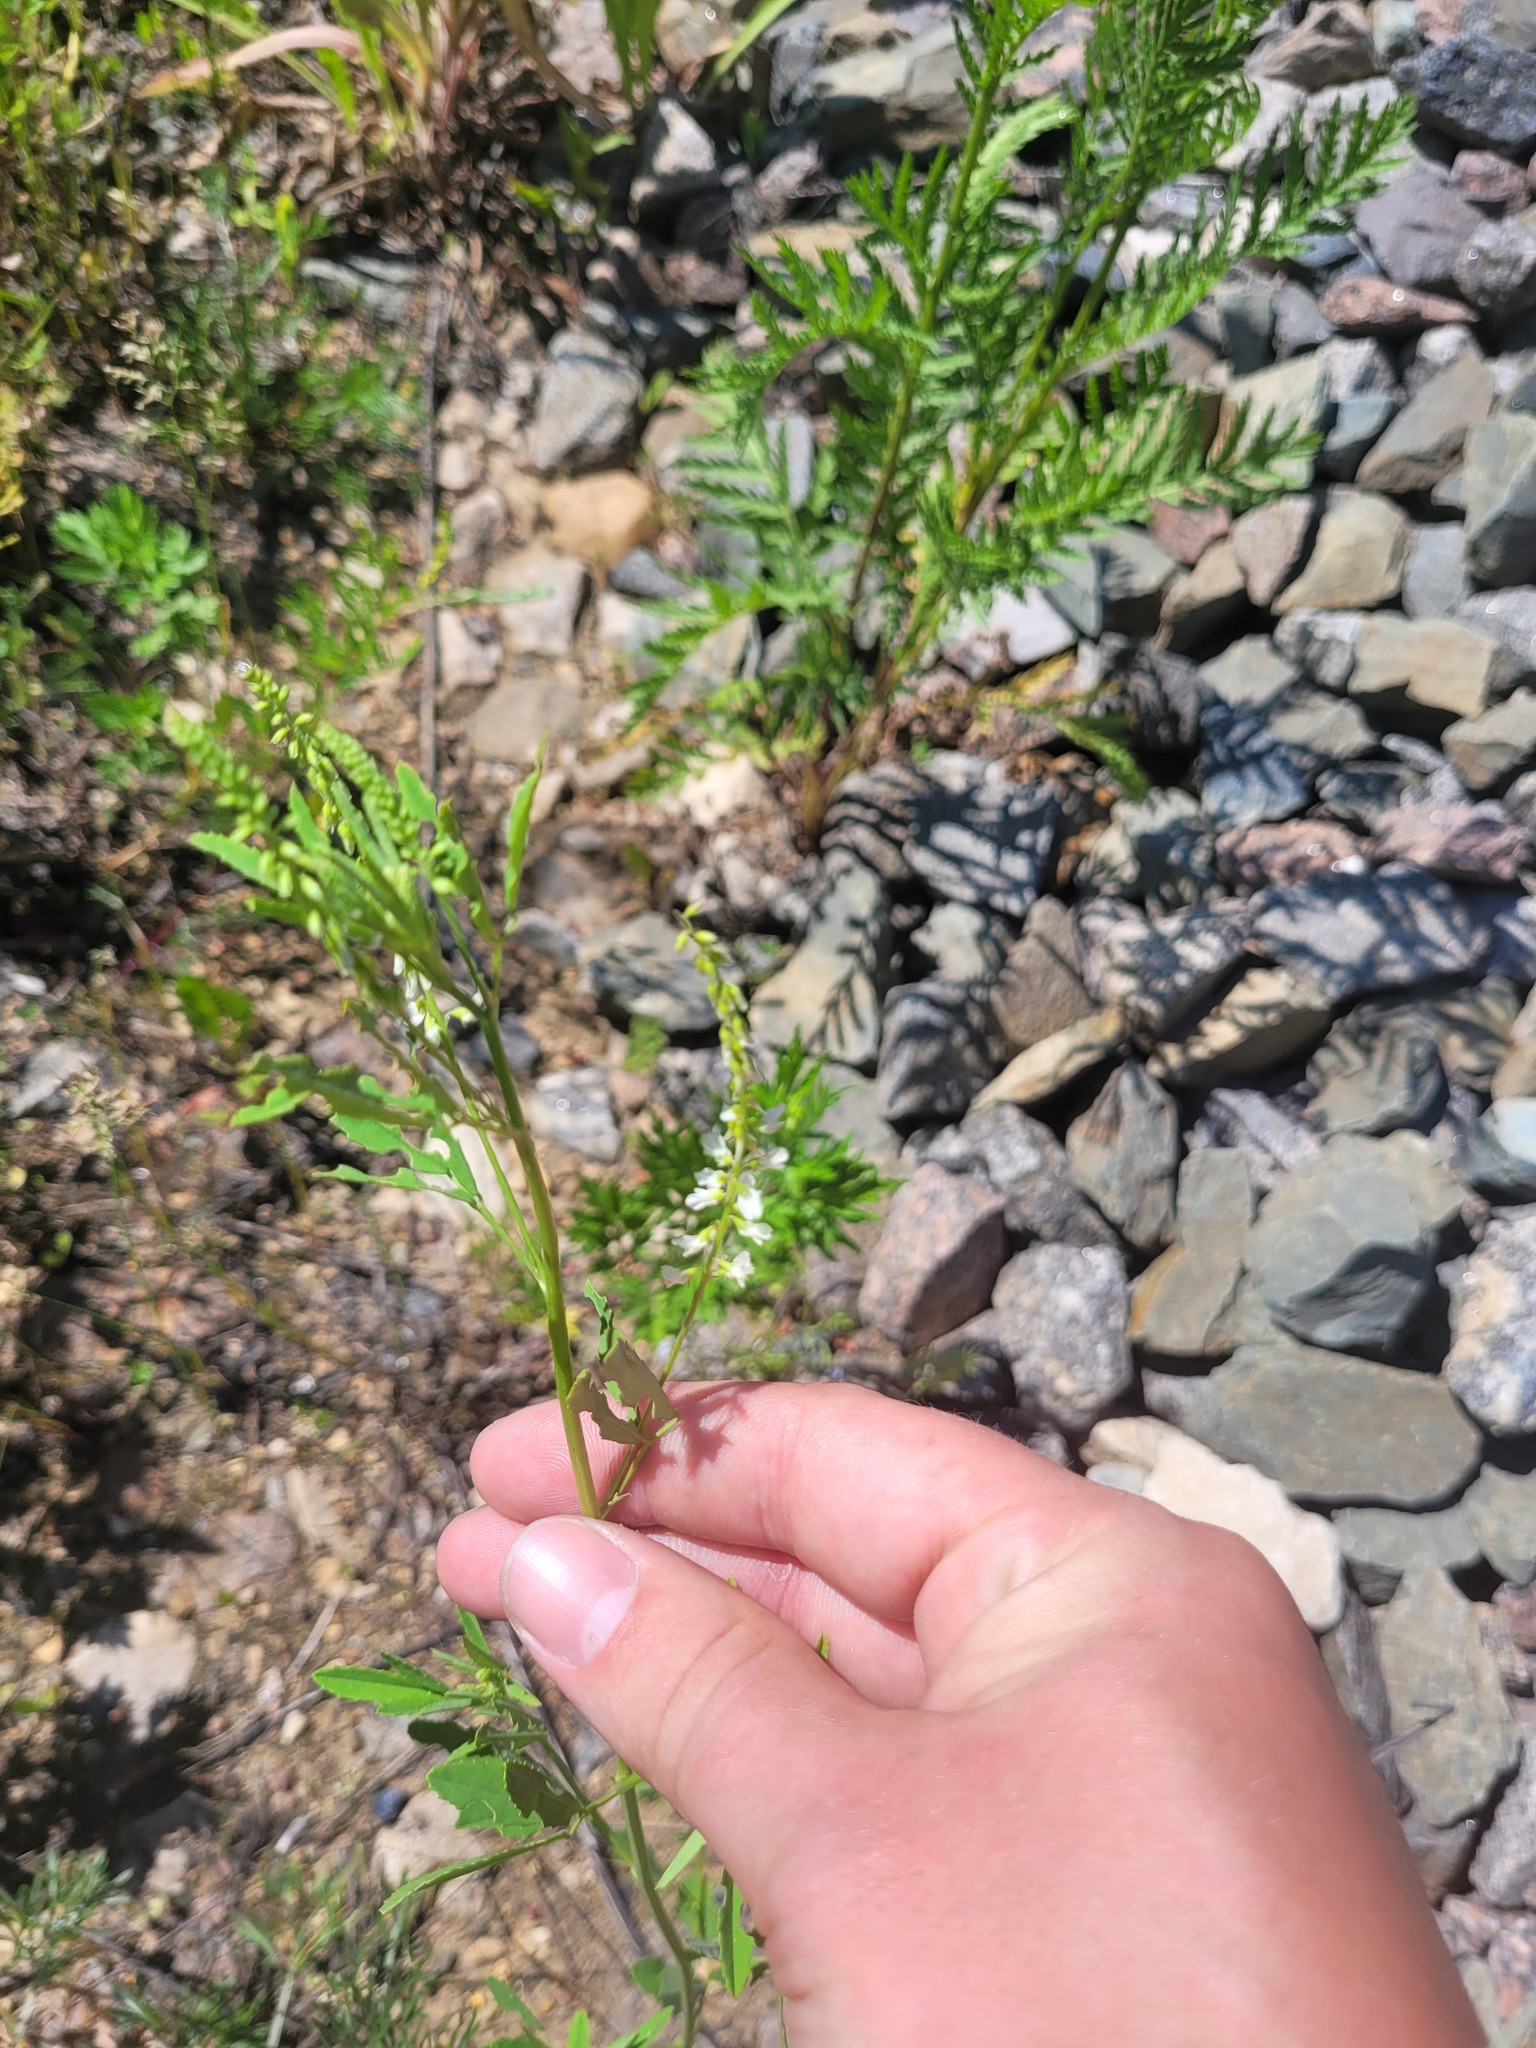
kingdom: Plantae
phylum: Tracheophyta
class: Magnoliopsida
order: Fabales
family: Fabaceae
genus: Melilotus
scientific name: Melilotus albus
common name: White melilot
